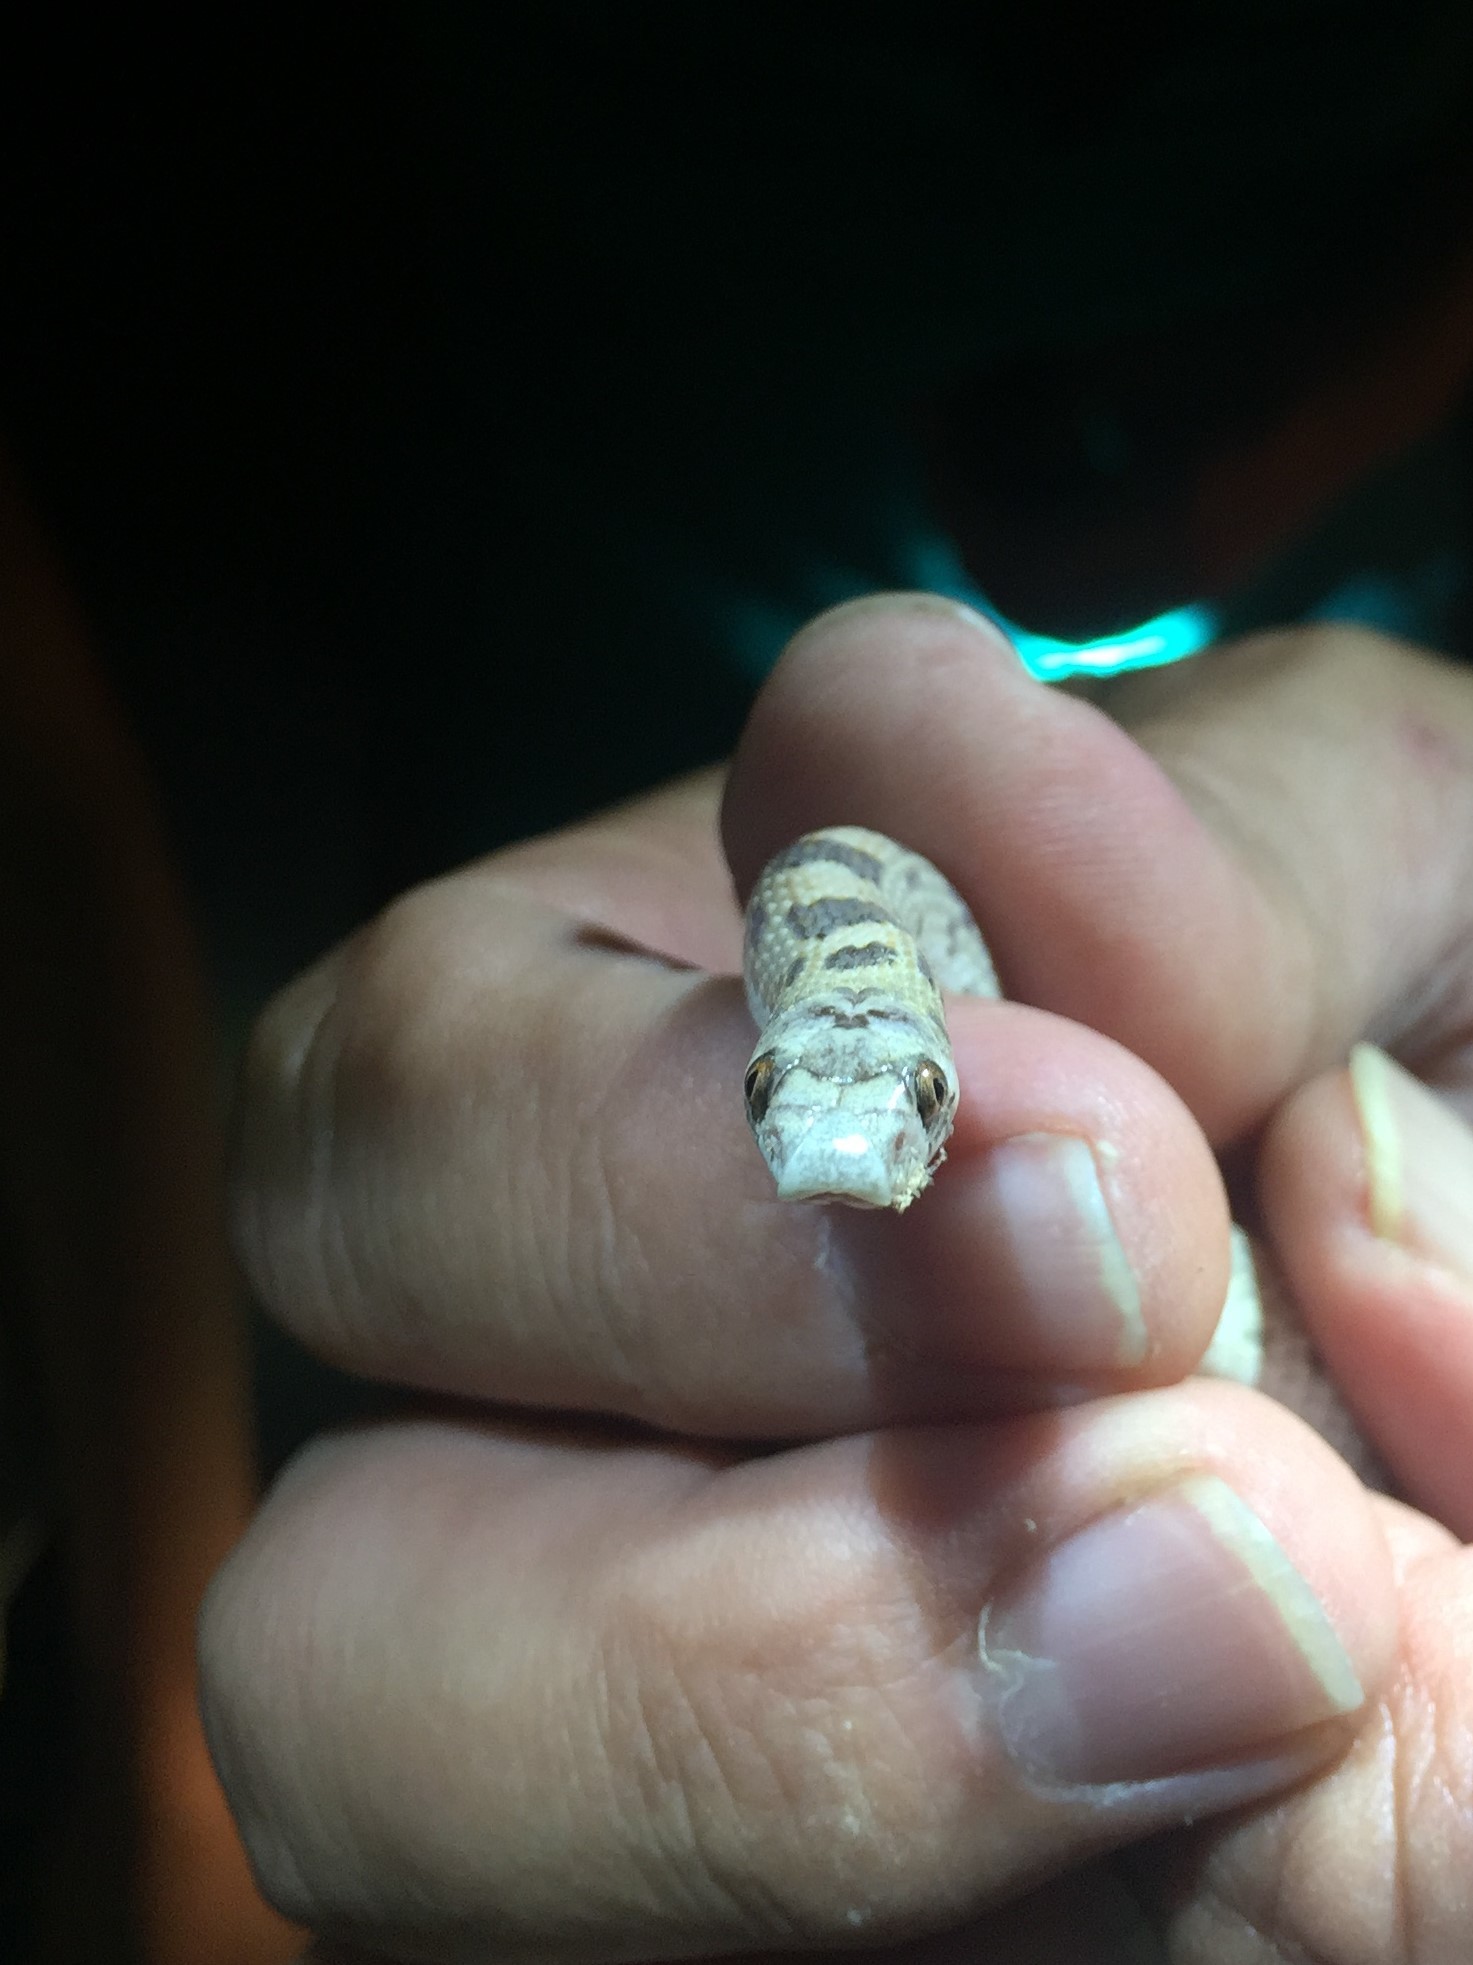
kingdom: Animalia
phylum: Chordata
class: Squamata
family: Colubridae
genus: Phyllorhynchus
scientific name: Phyllorhynchus decurtatus
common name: Spotted leafnose snake
